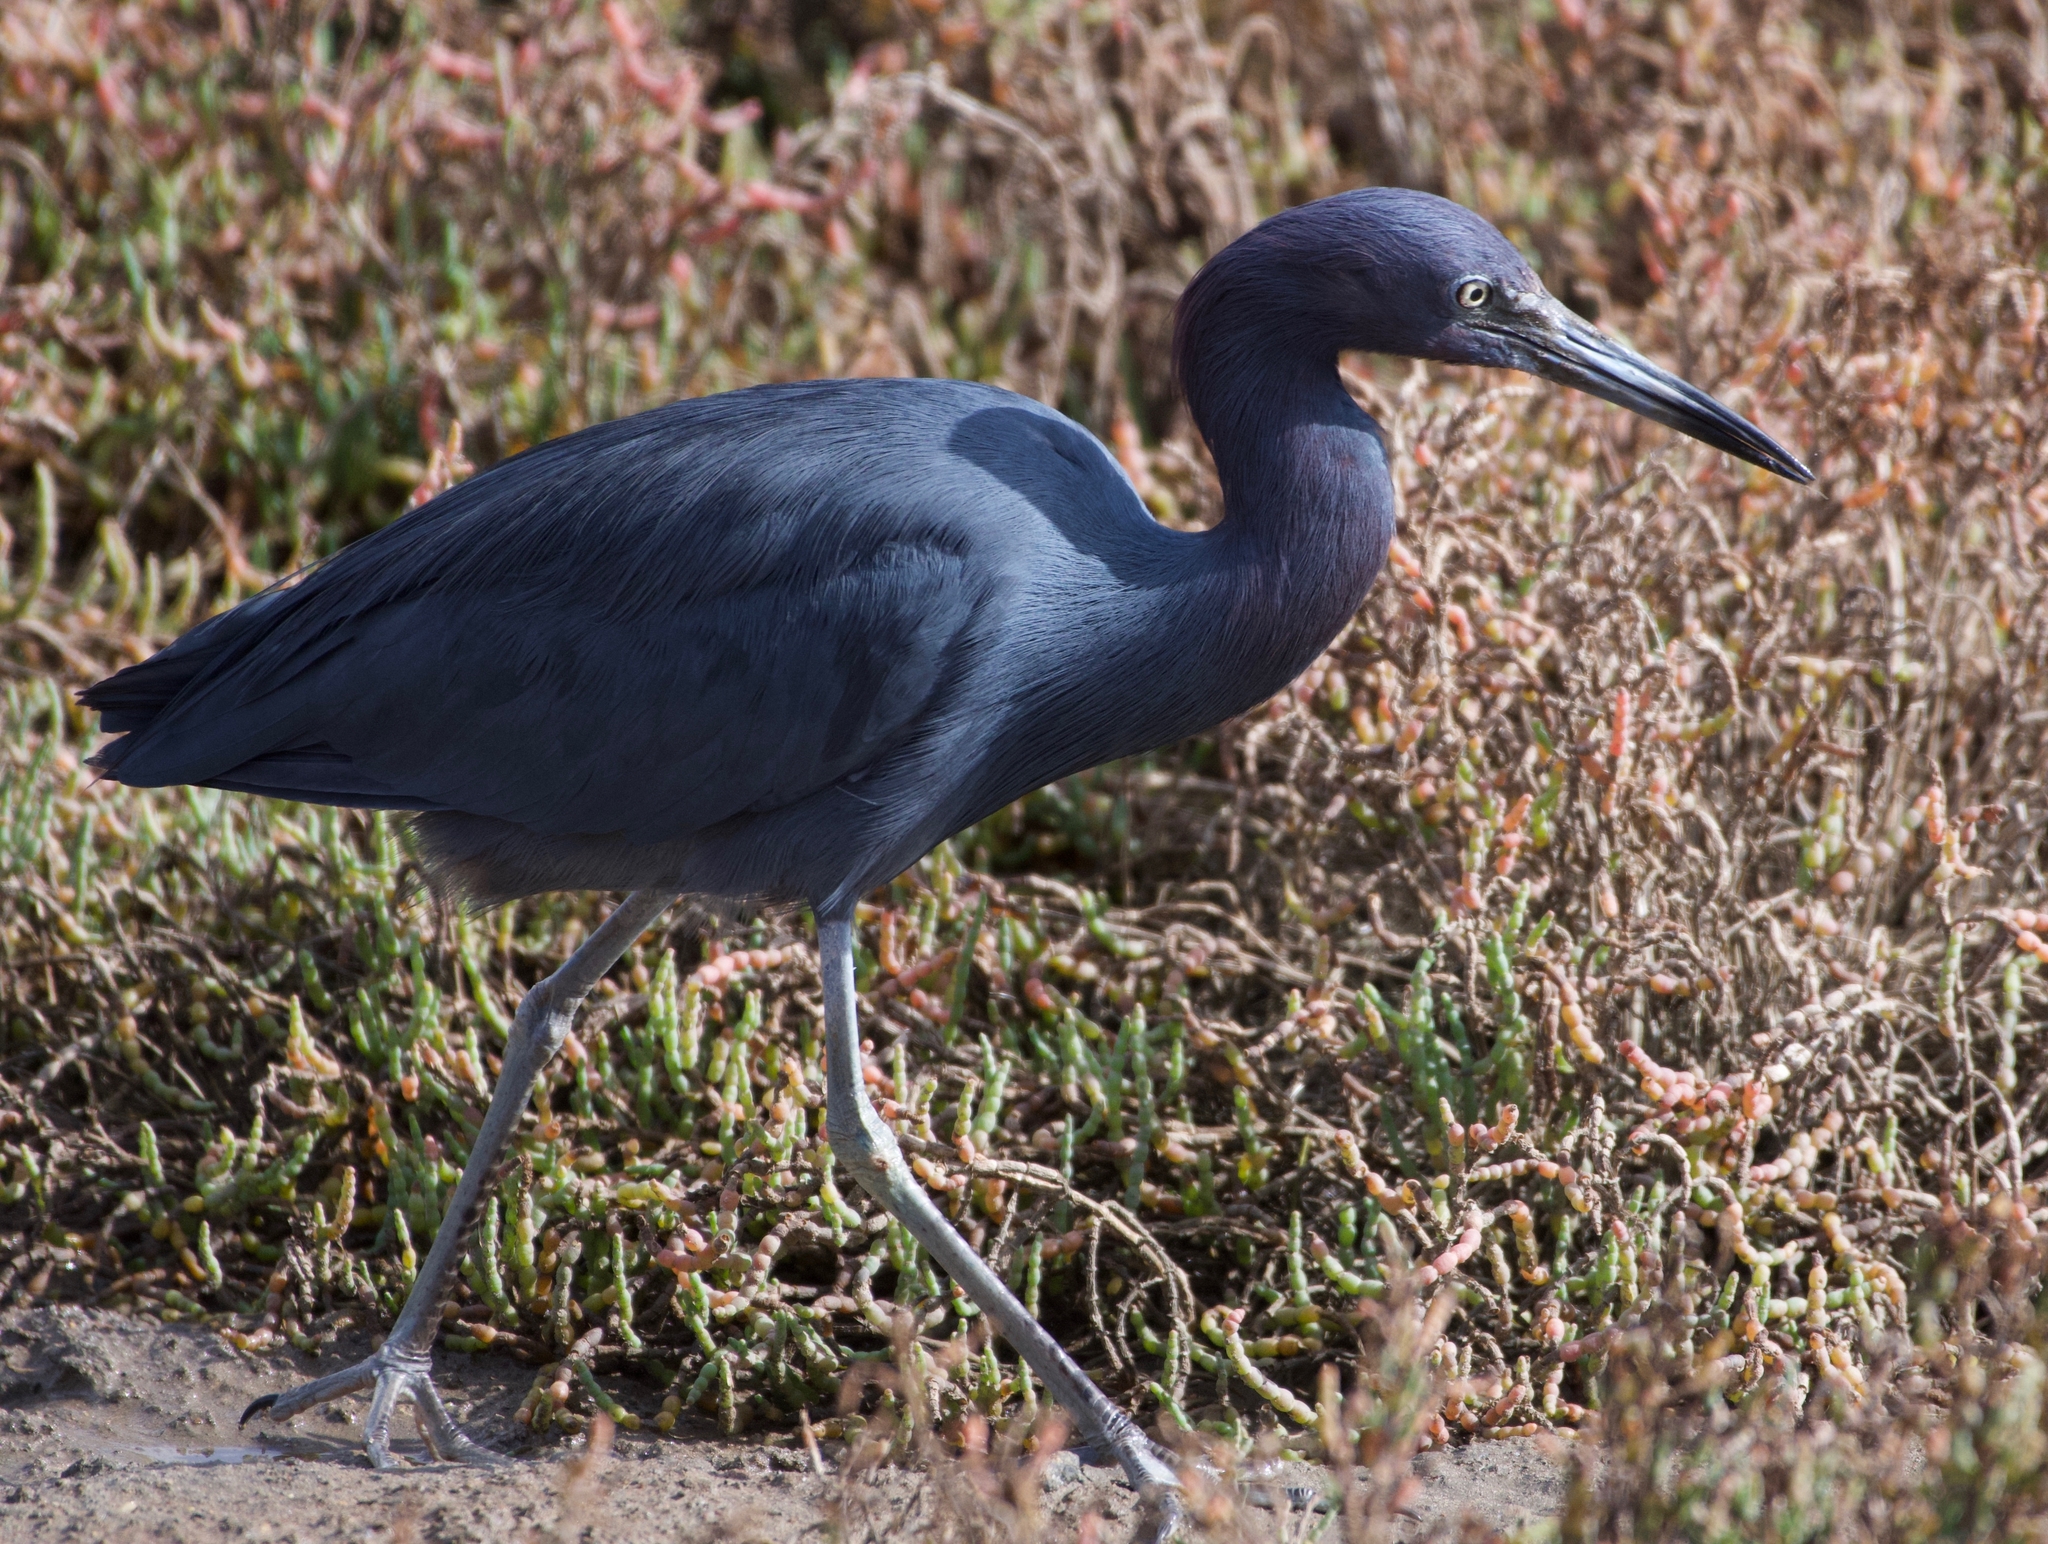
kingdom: Animalia
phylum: Chordata
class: Aves
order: Pelecaniformes
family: Ardeidae
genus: Egretta
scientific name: Egretta caerulea
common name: Little blue heron
